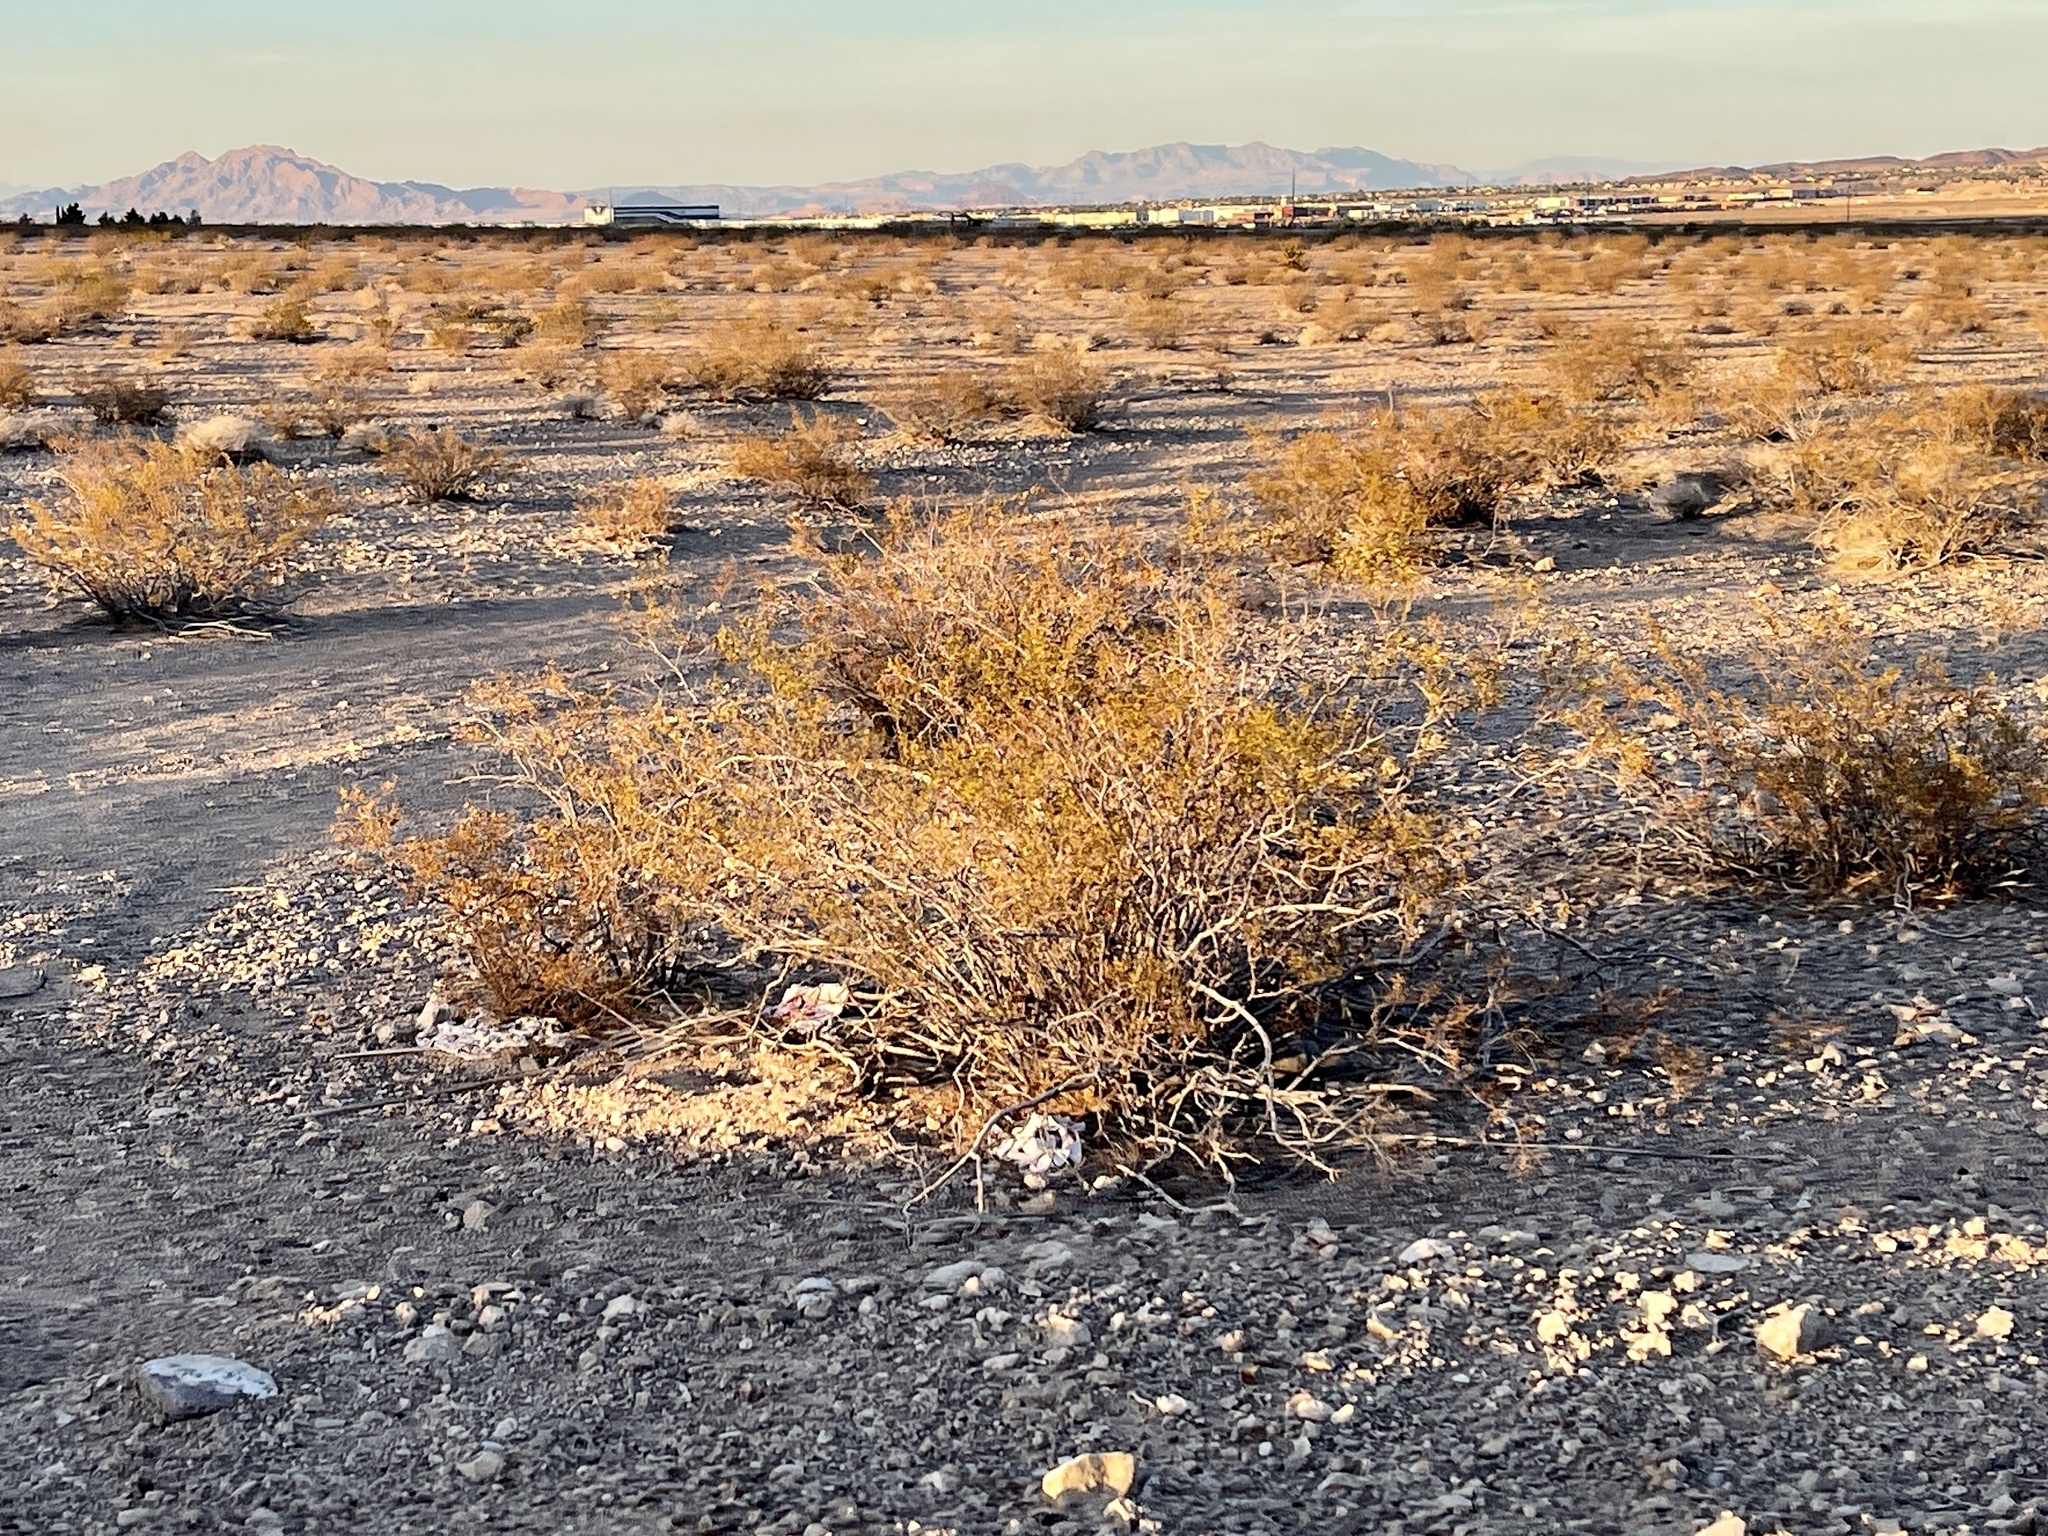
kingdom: Plantae
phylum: Tracheophyta
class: Magnoliopsida
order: Zygophyllales
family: Zygophyllaceae
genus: Larrea
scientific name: Larrea tridentata
